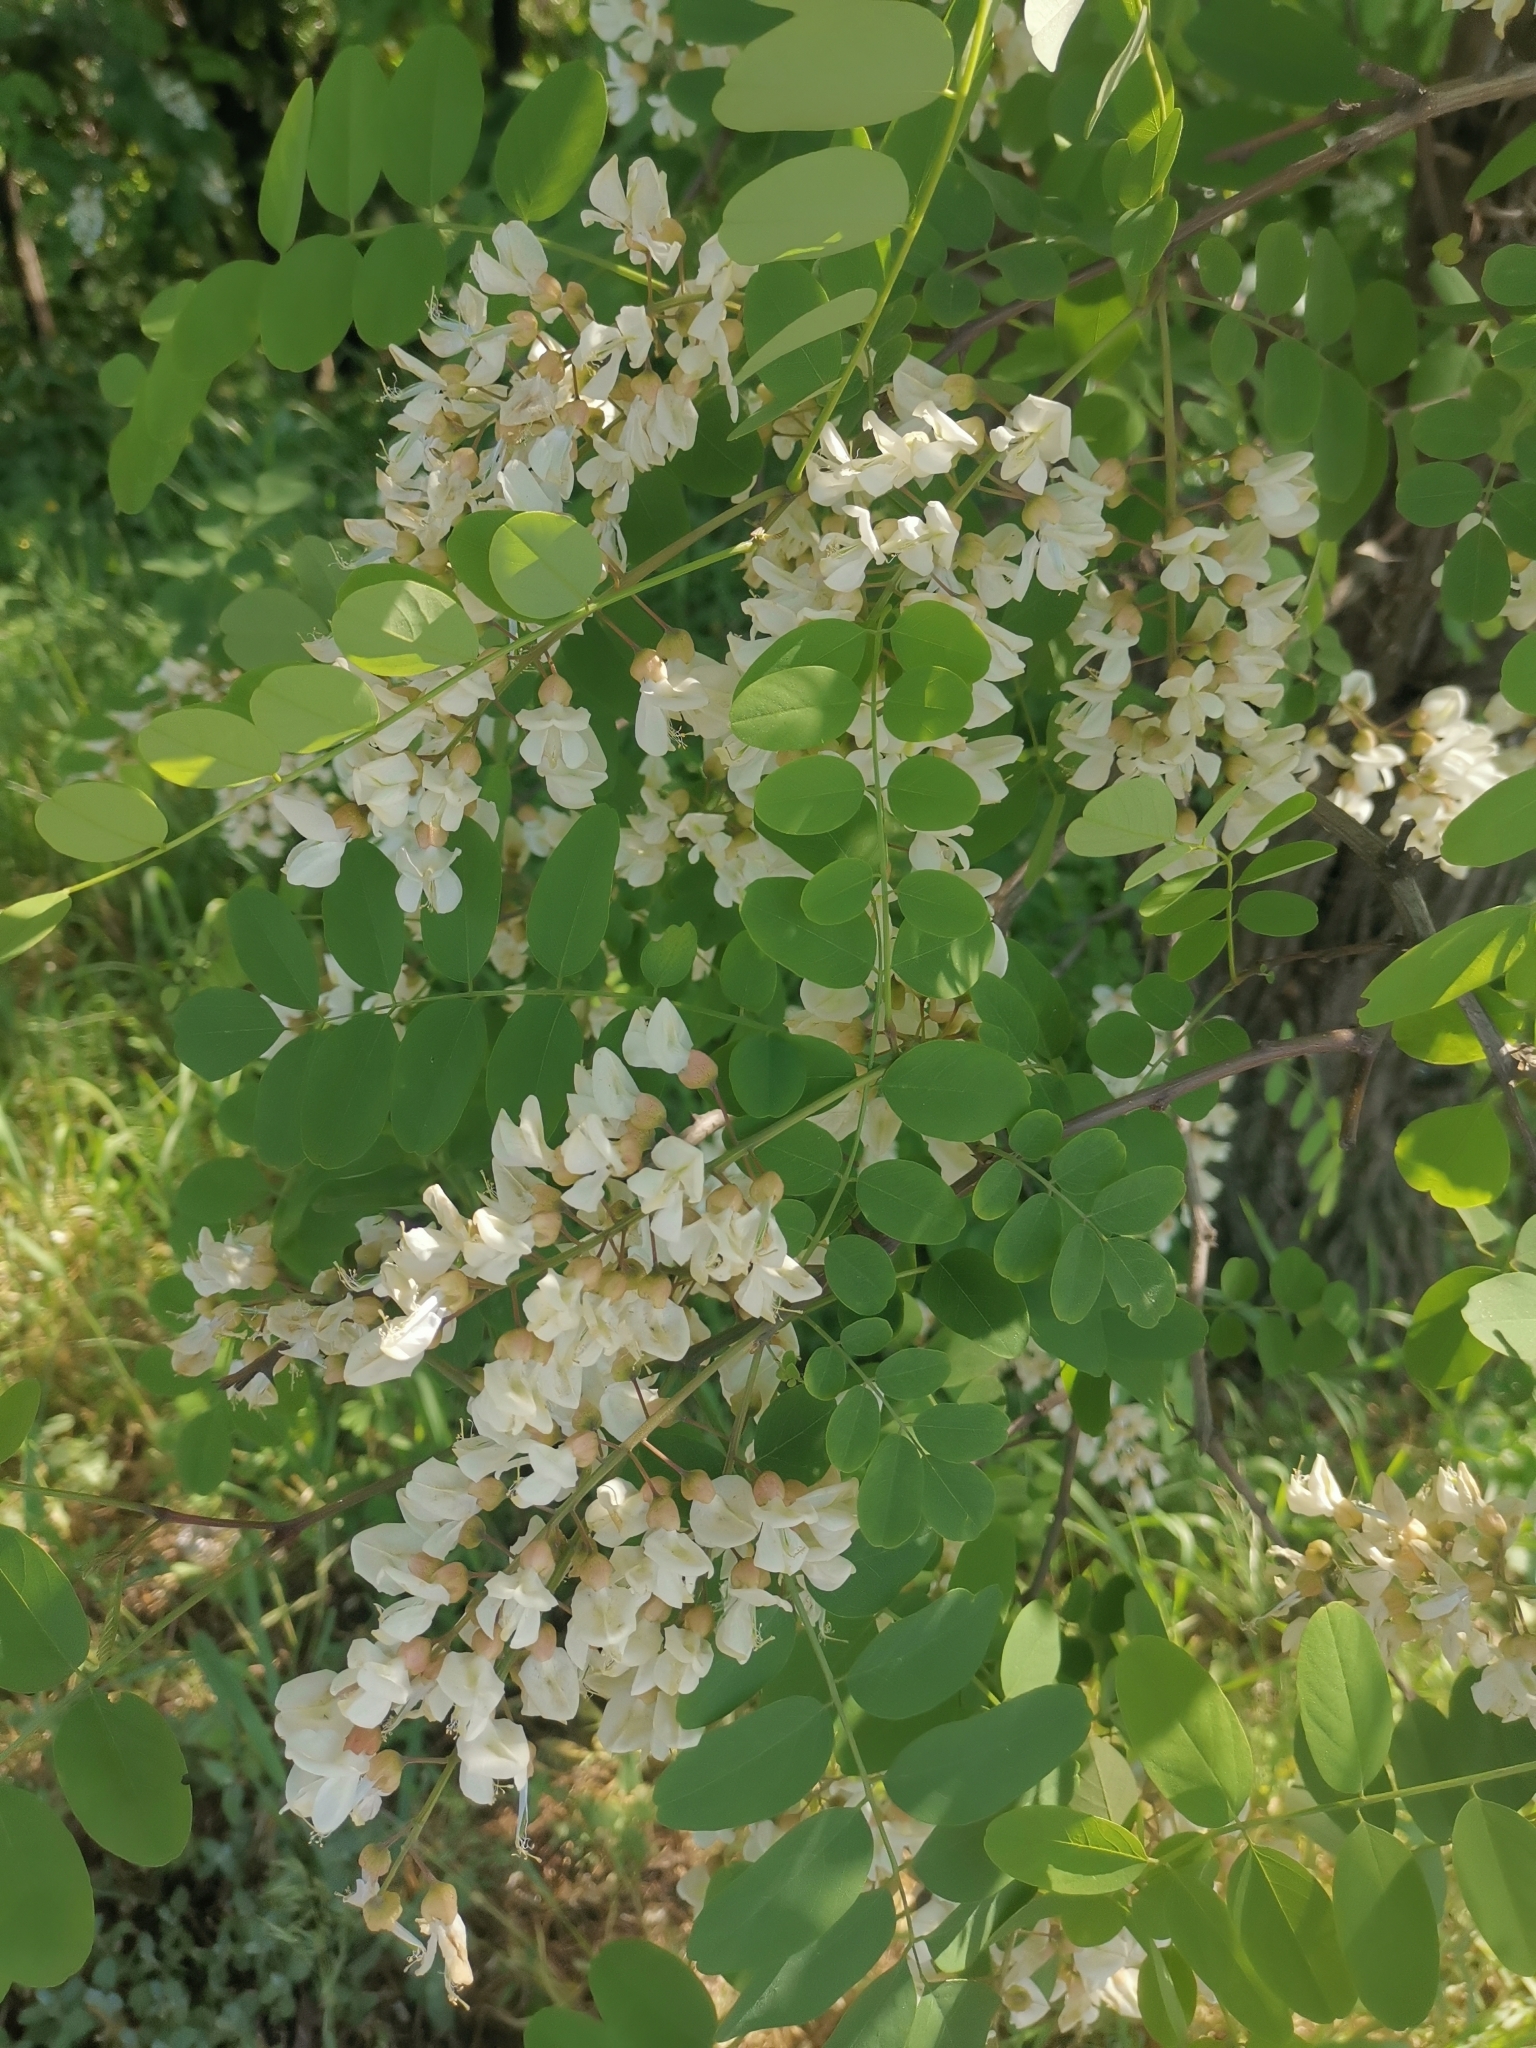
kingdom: Plantae
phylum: Tracheophyta
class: Magnoliopsida
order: Fabales
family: Fabaceae
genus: Robinia
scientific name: Robinia pseudoacacia
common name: Black locust
